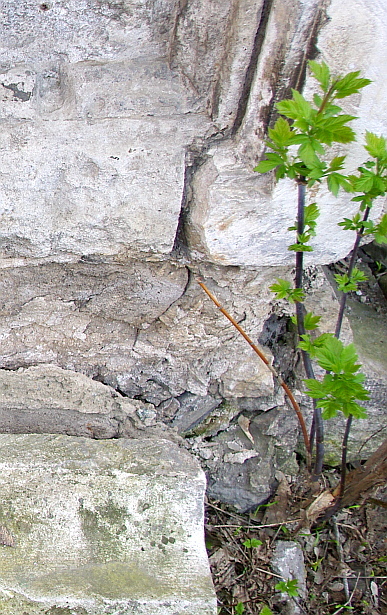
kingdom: Plantae
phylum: Tracheophyta
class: Magnoliopsida
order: Sapindales
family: Sapindaceae
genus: Acer
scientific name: Acer negundo
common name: Ashleaf maple
